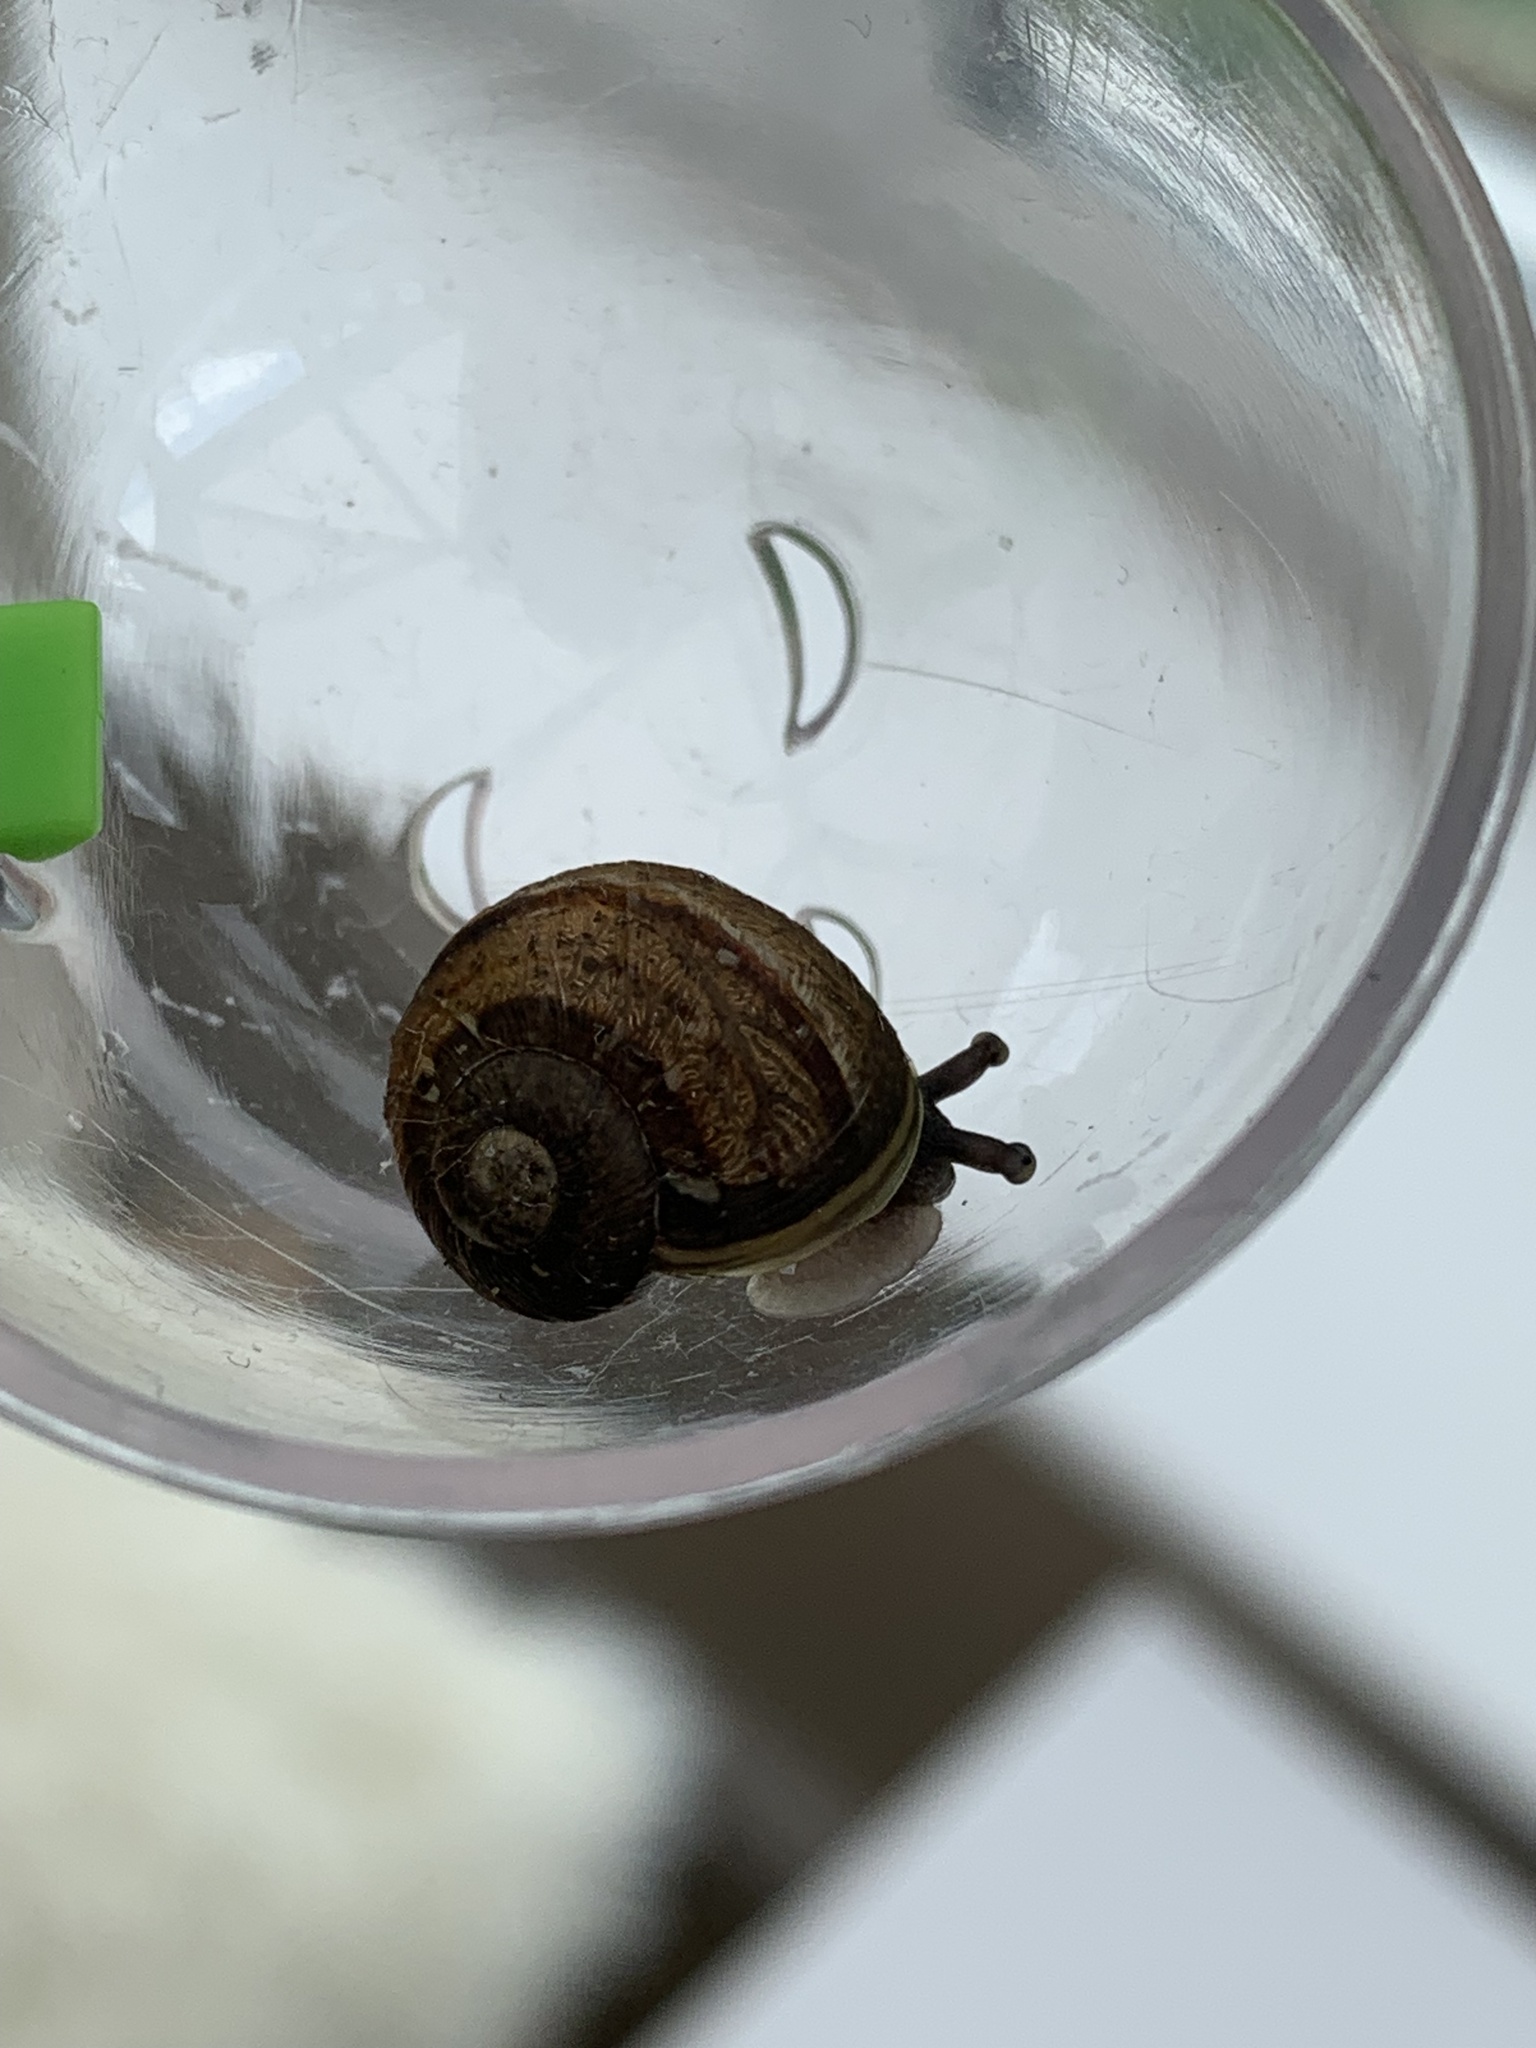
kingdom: Animalia
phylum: Mollusca
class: Gastropoda
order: Stylommatophora
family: Helicidae
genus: Cornu
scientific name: Cornu aspersum
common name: Brown garden snail
